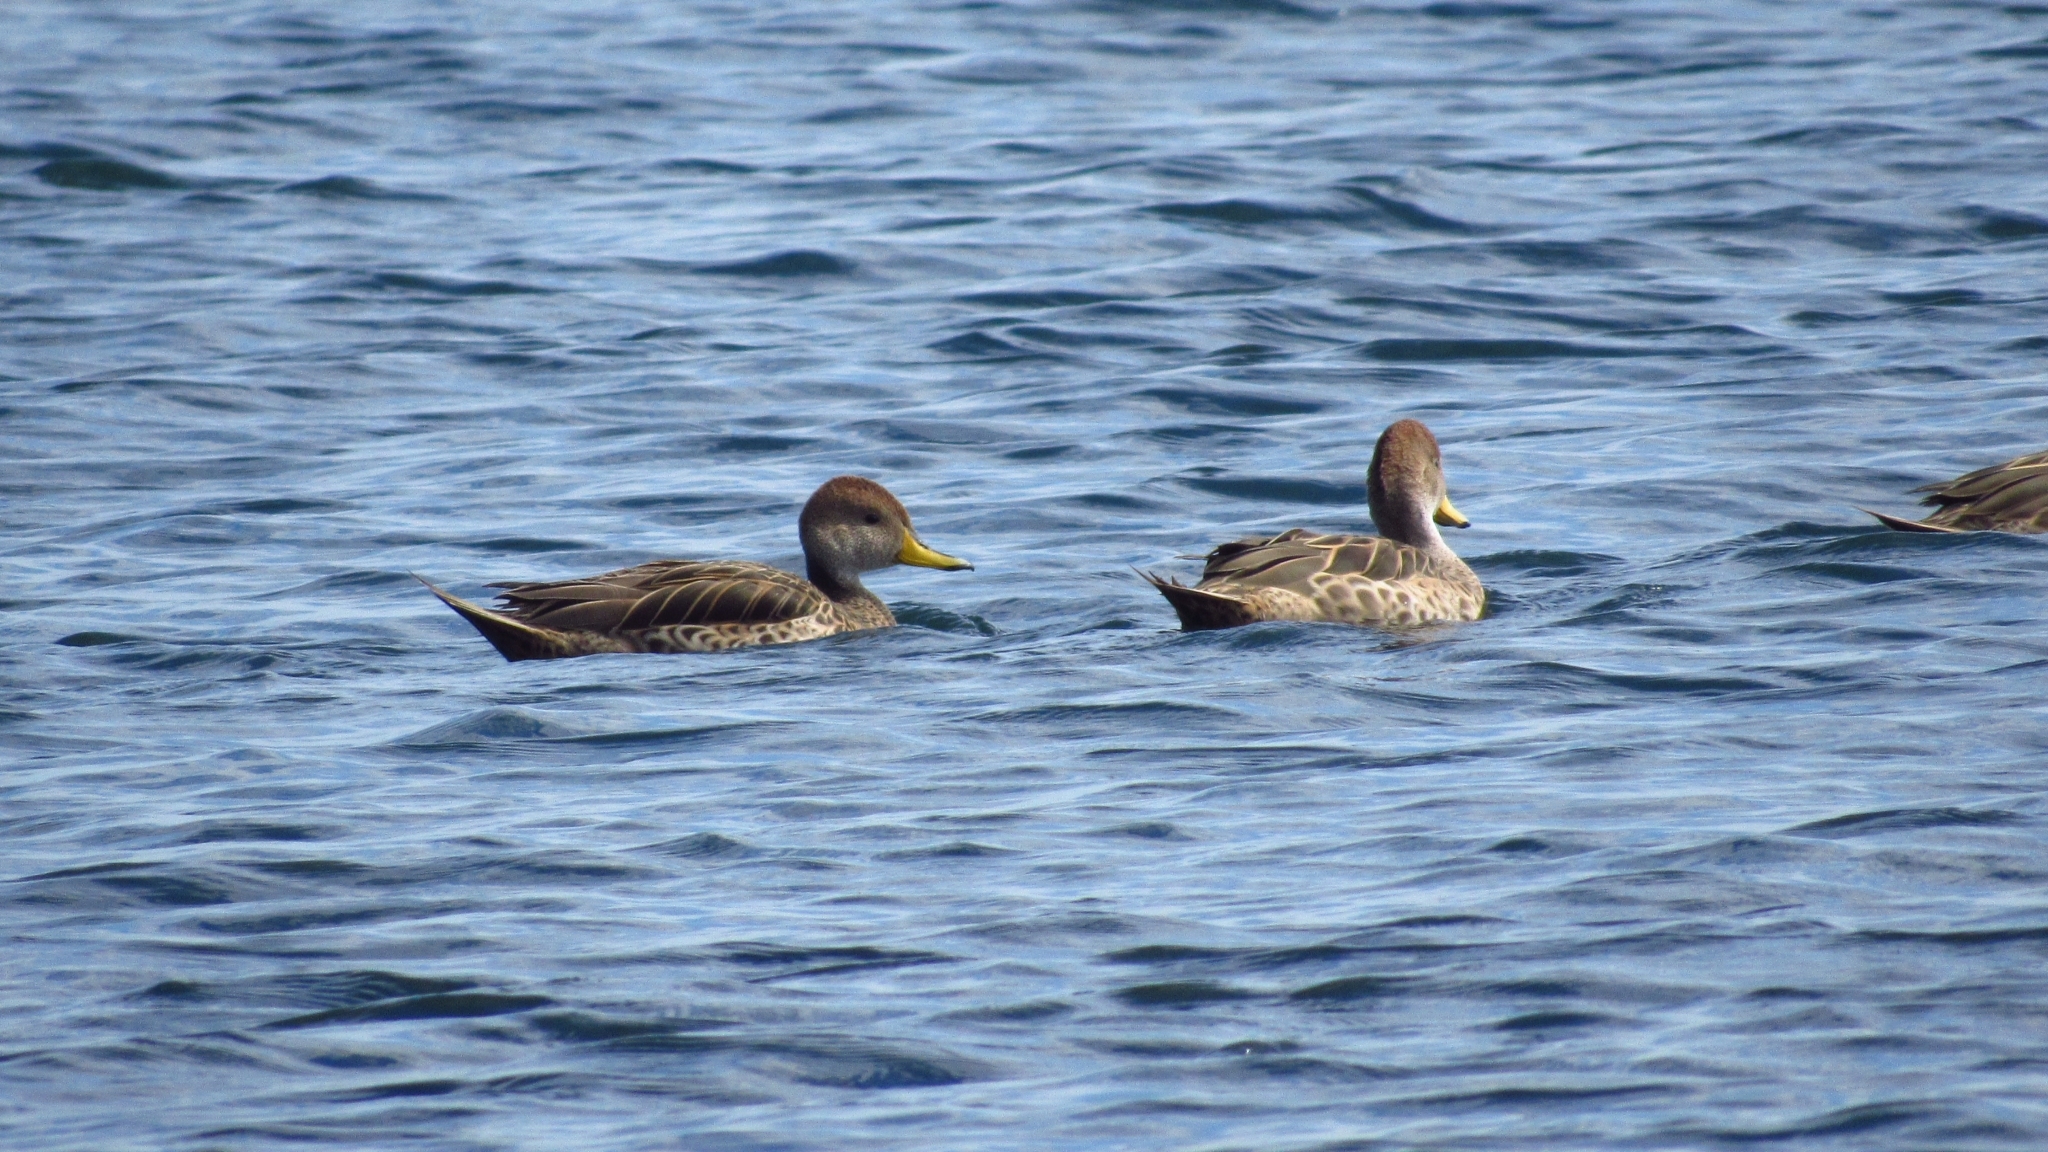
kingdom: Animalia
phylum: Chordata
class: Aves
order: Anseriformes
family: Anatidae
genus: Anas
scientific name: Anas georgica
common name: Yellow-billed pintail
